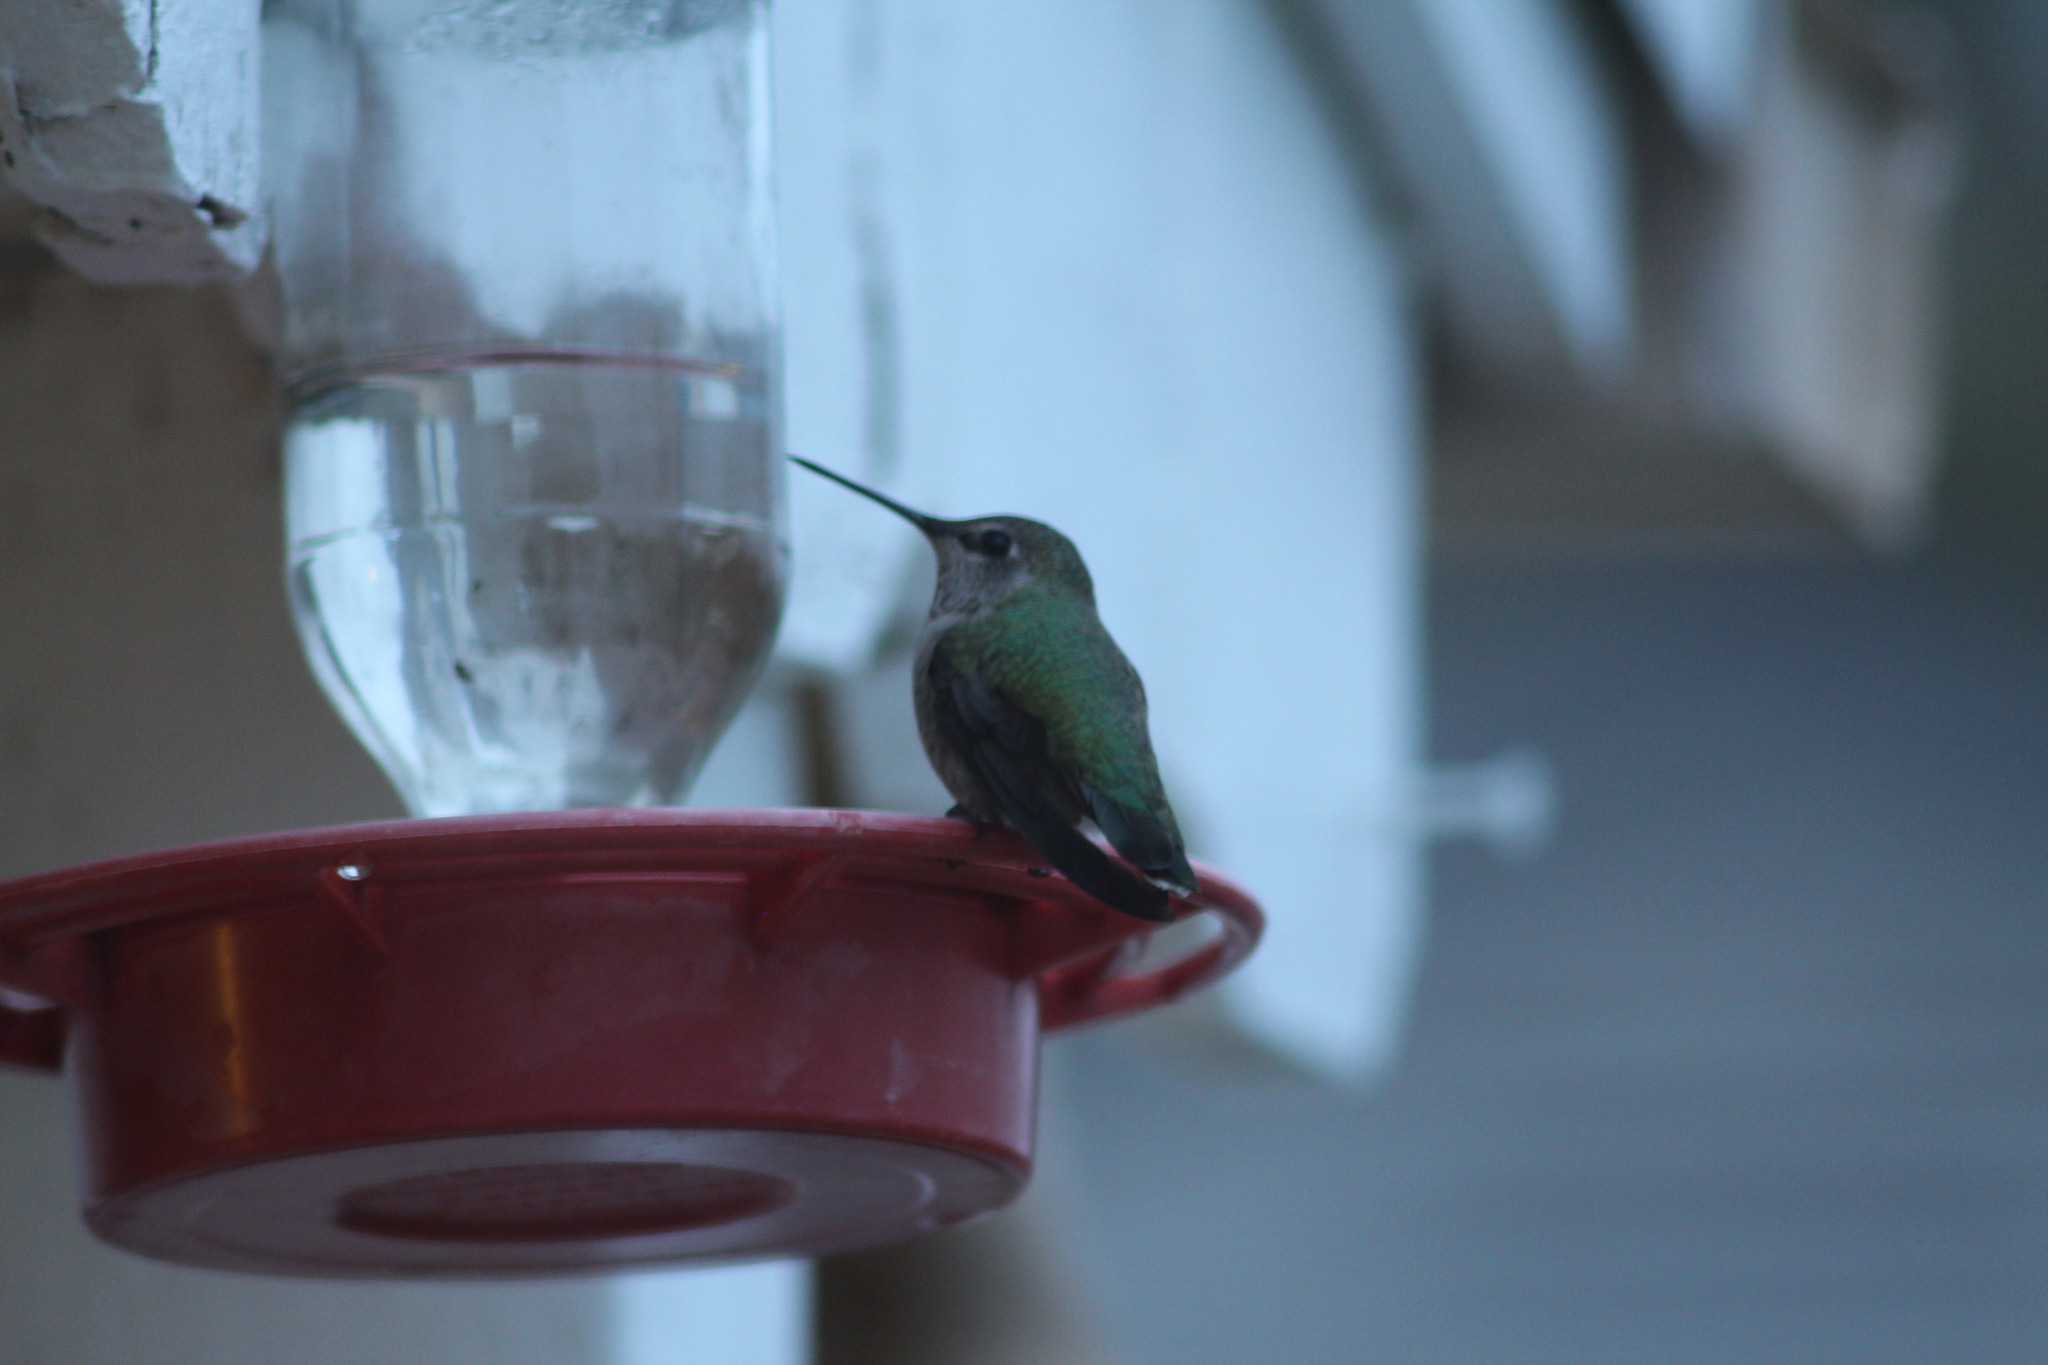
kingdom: Animalia
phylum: Chordata
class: Aves
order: Apodiformes
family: Trochilidae
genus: Calypte
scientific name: Calypte anna
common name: Anna's hummingbird
